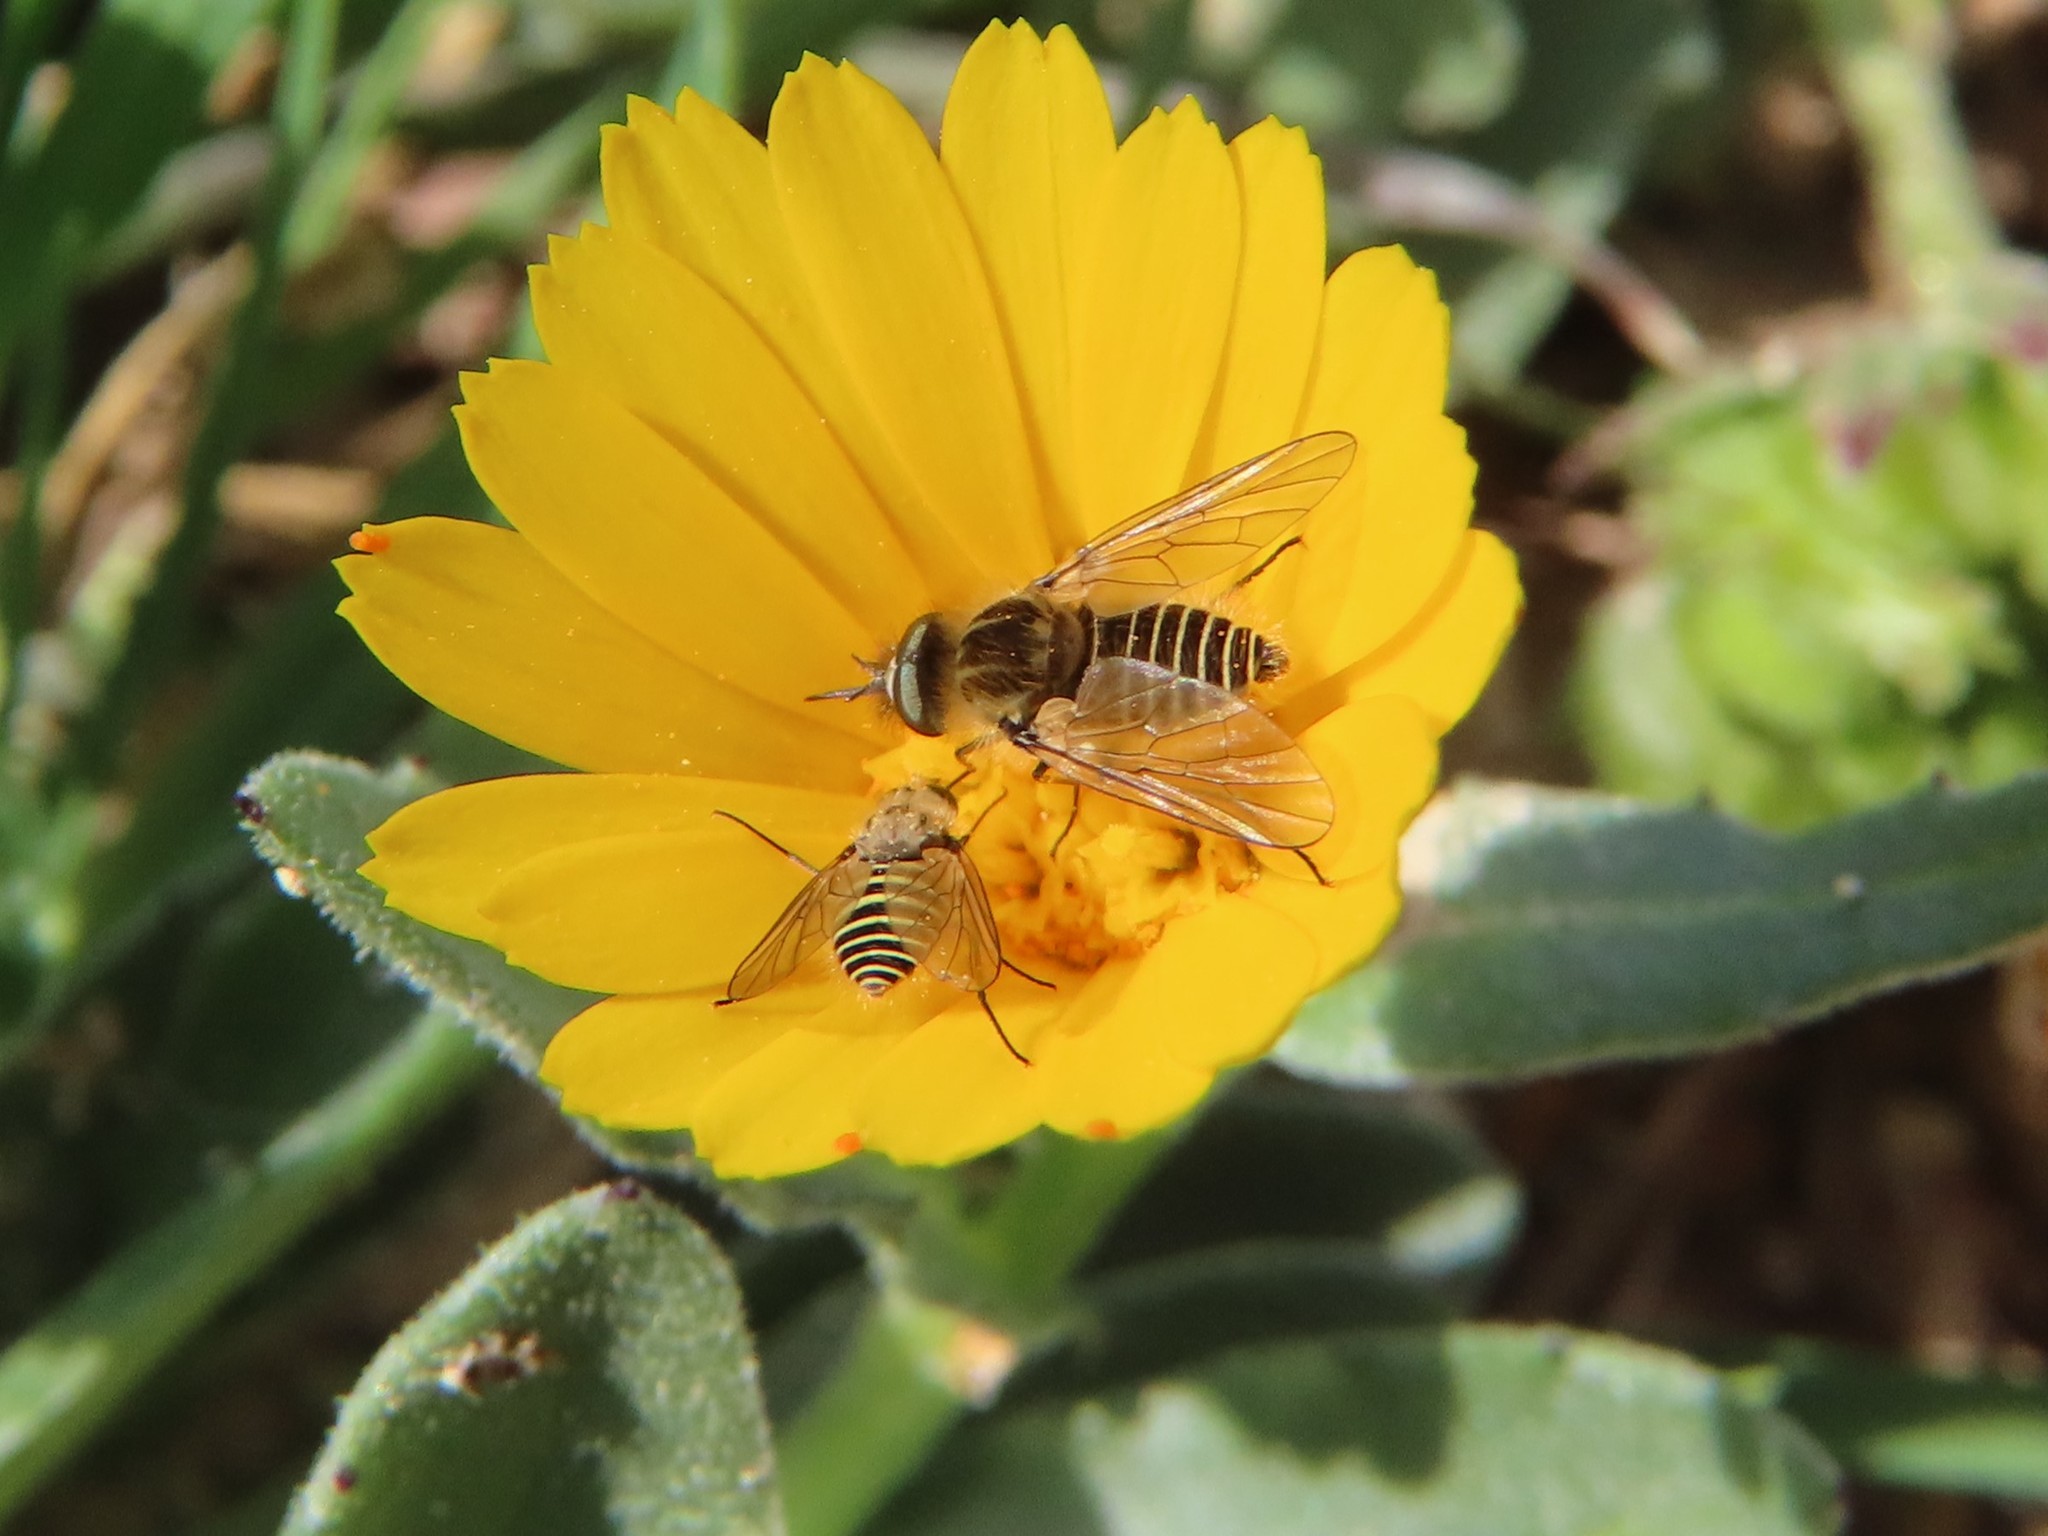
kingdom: Animalia
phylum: Arthropoda
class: Insecta
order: Diptera
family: Bombyliidae
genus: Protypusia
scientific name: Protypusia grata
